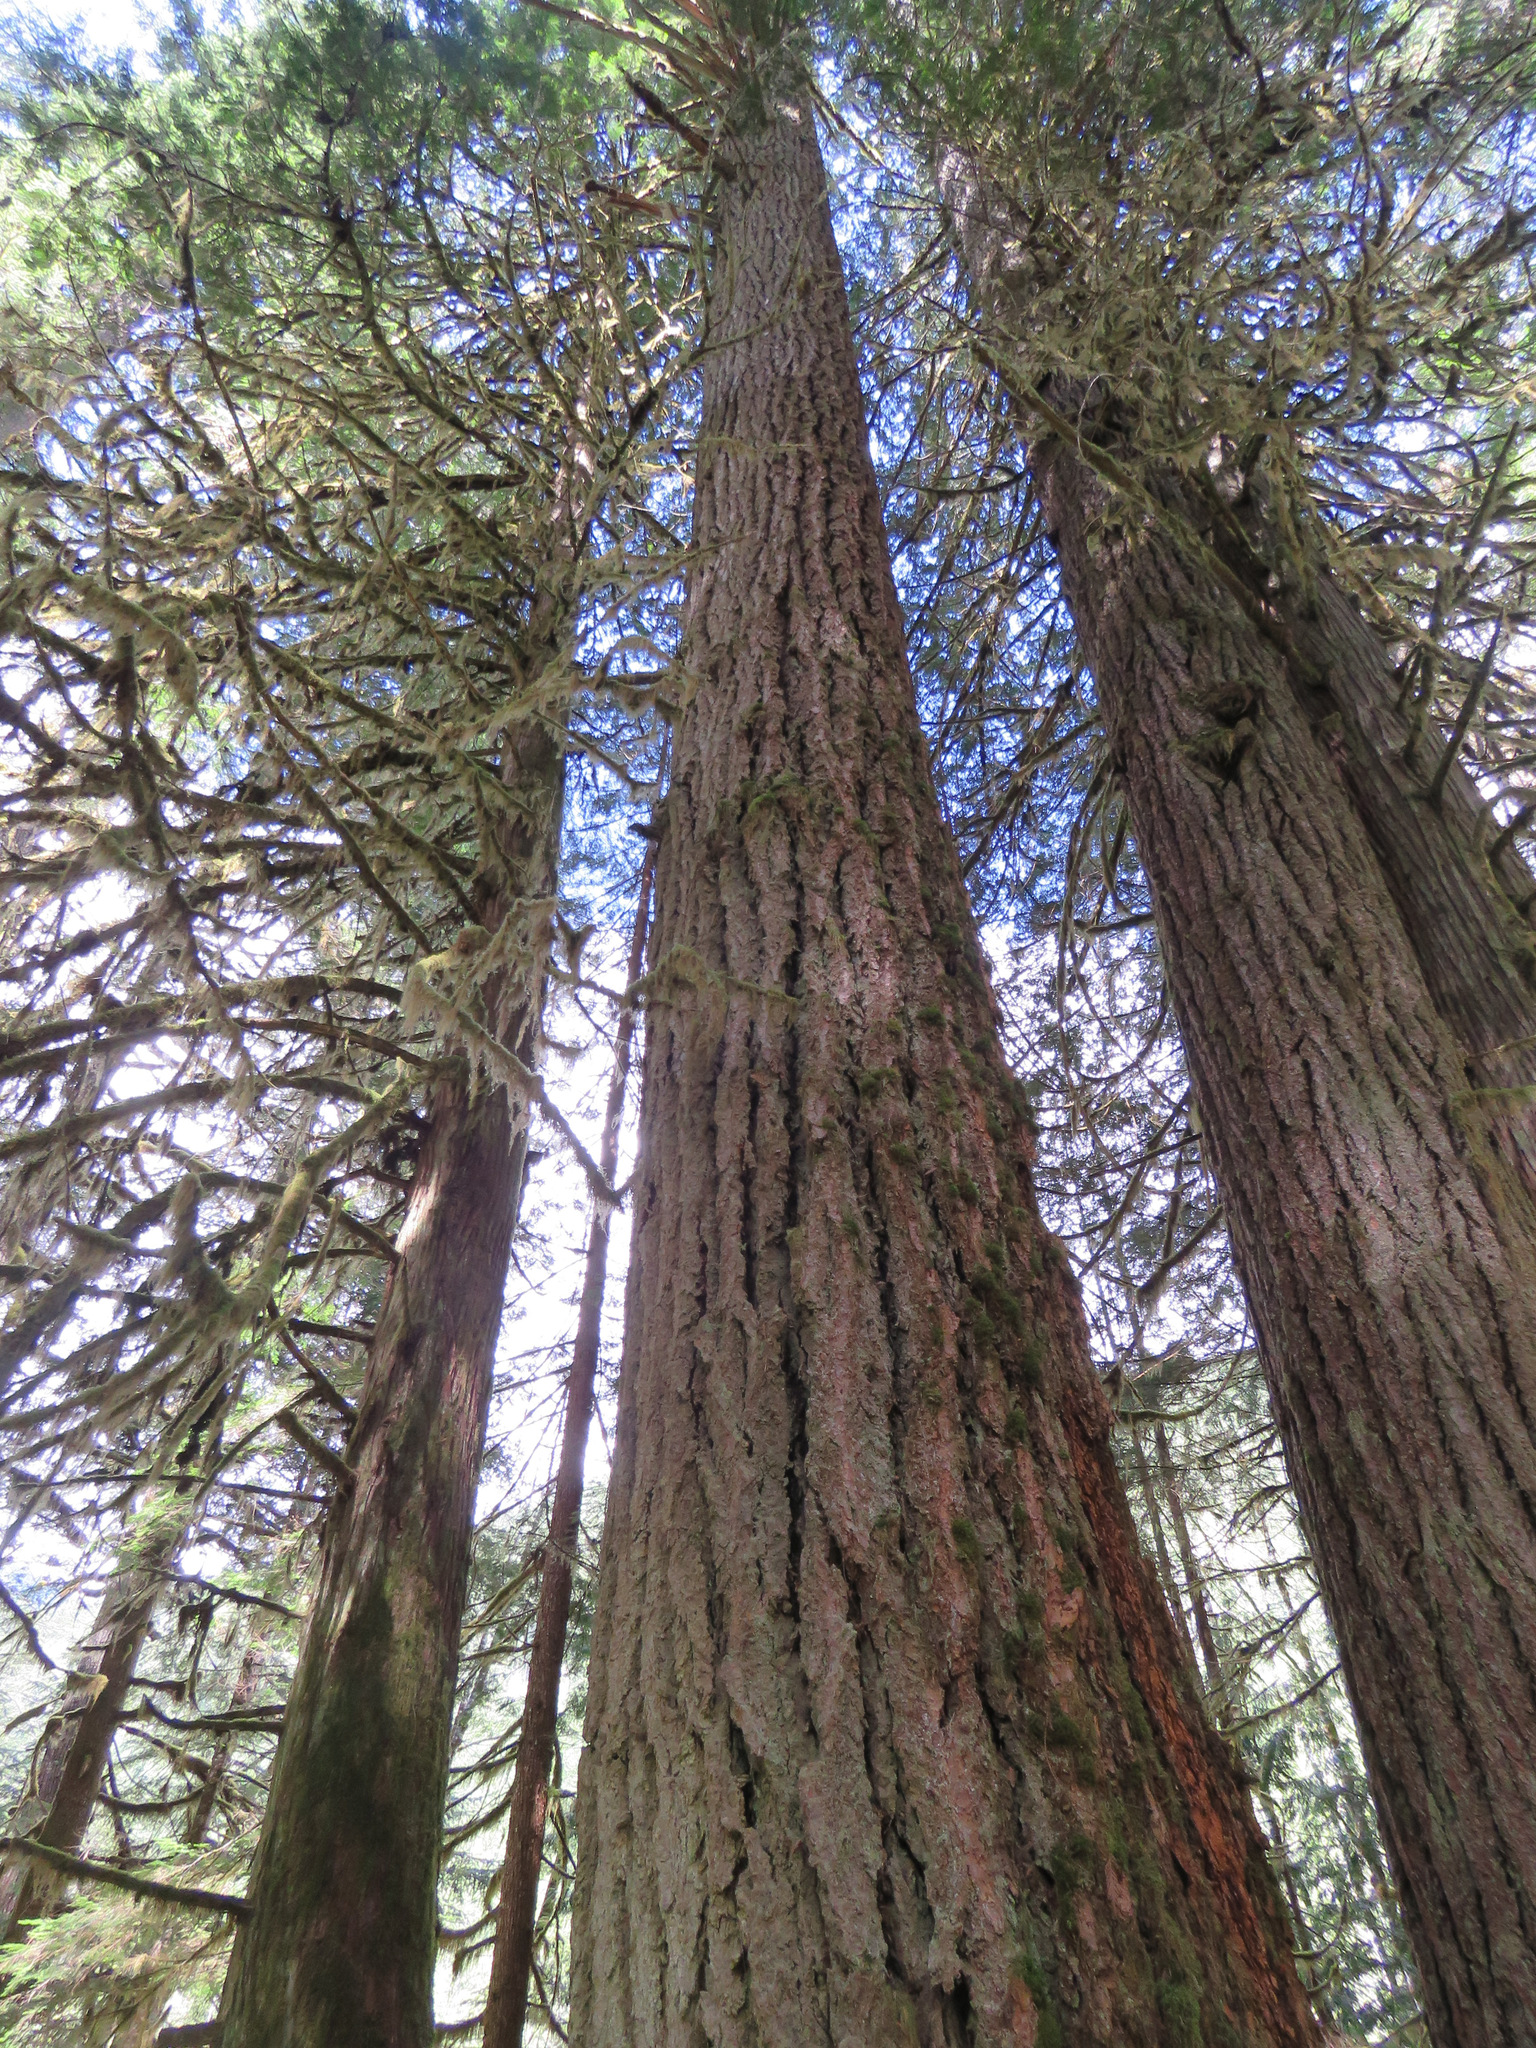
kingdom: Plantae
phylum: Tracheophyta
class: Pinopsida
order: Pinales
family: Pinaceae
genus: Pseudotsuga
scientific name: Pseudotsuga menziesii
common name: Douglas fir
